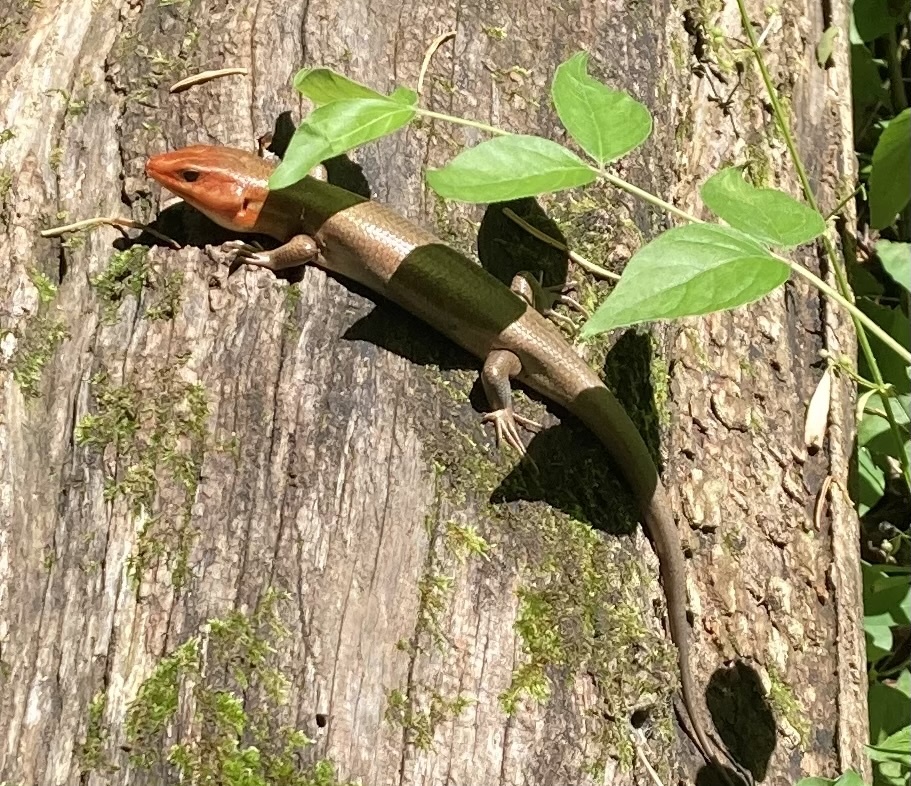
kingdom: Animalia
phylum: Chordata
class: Squamata
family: Scincidae
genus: Plestiodon
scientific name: Plestiodon laticeps
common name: Broadhead skink
